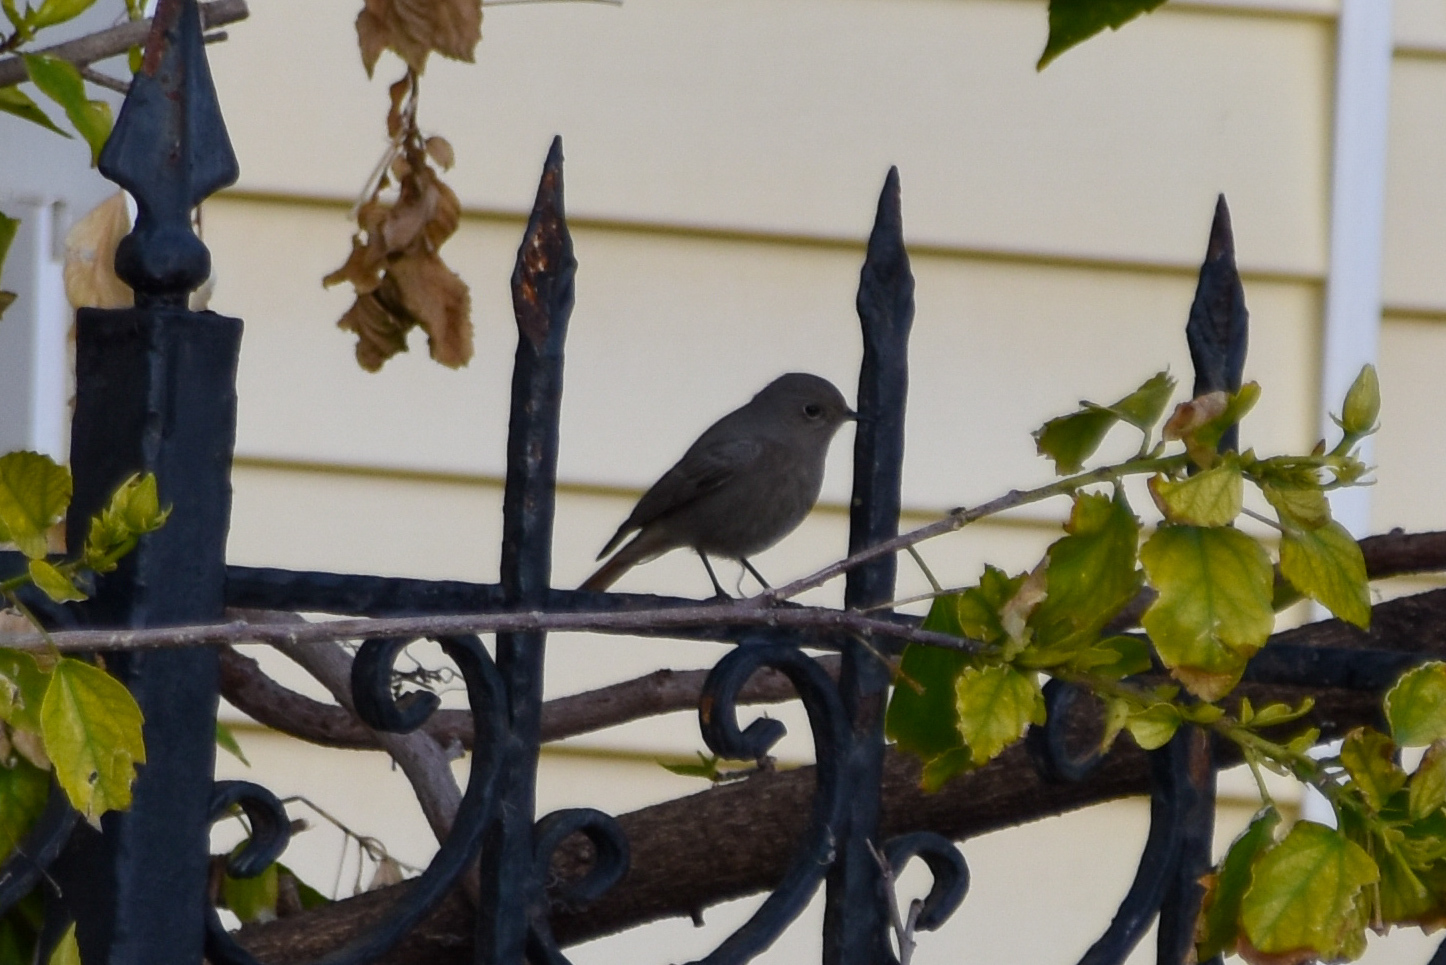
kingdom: Animalia
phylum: Chordata
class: Aves
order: Passeriformes
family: Muscicapidae
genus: Phoenicurus
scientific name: Phoenicurus ochruros
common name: Black redstart
